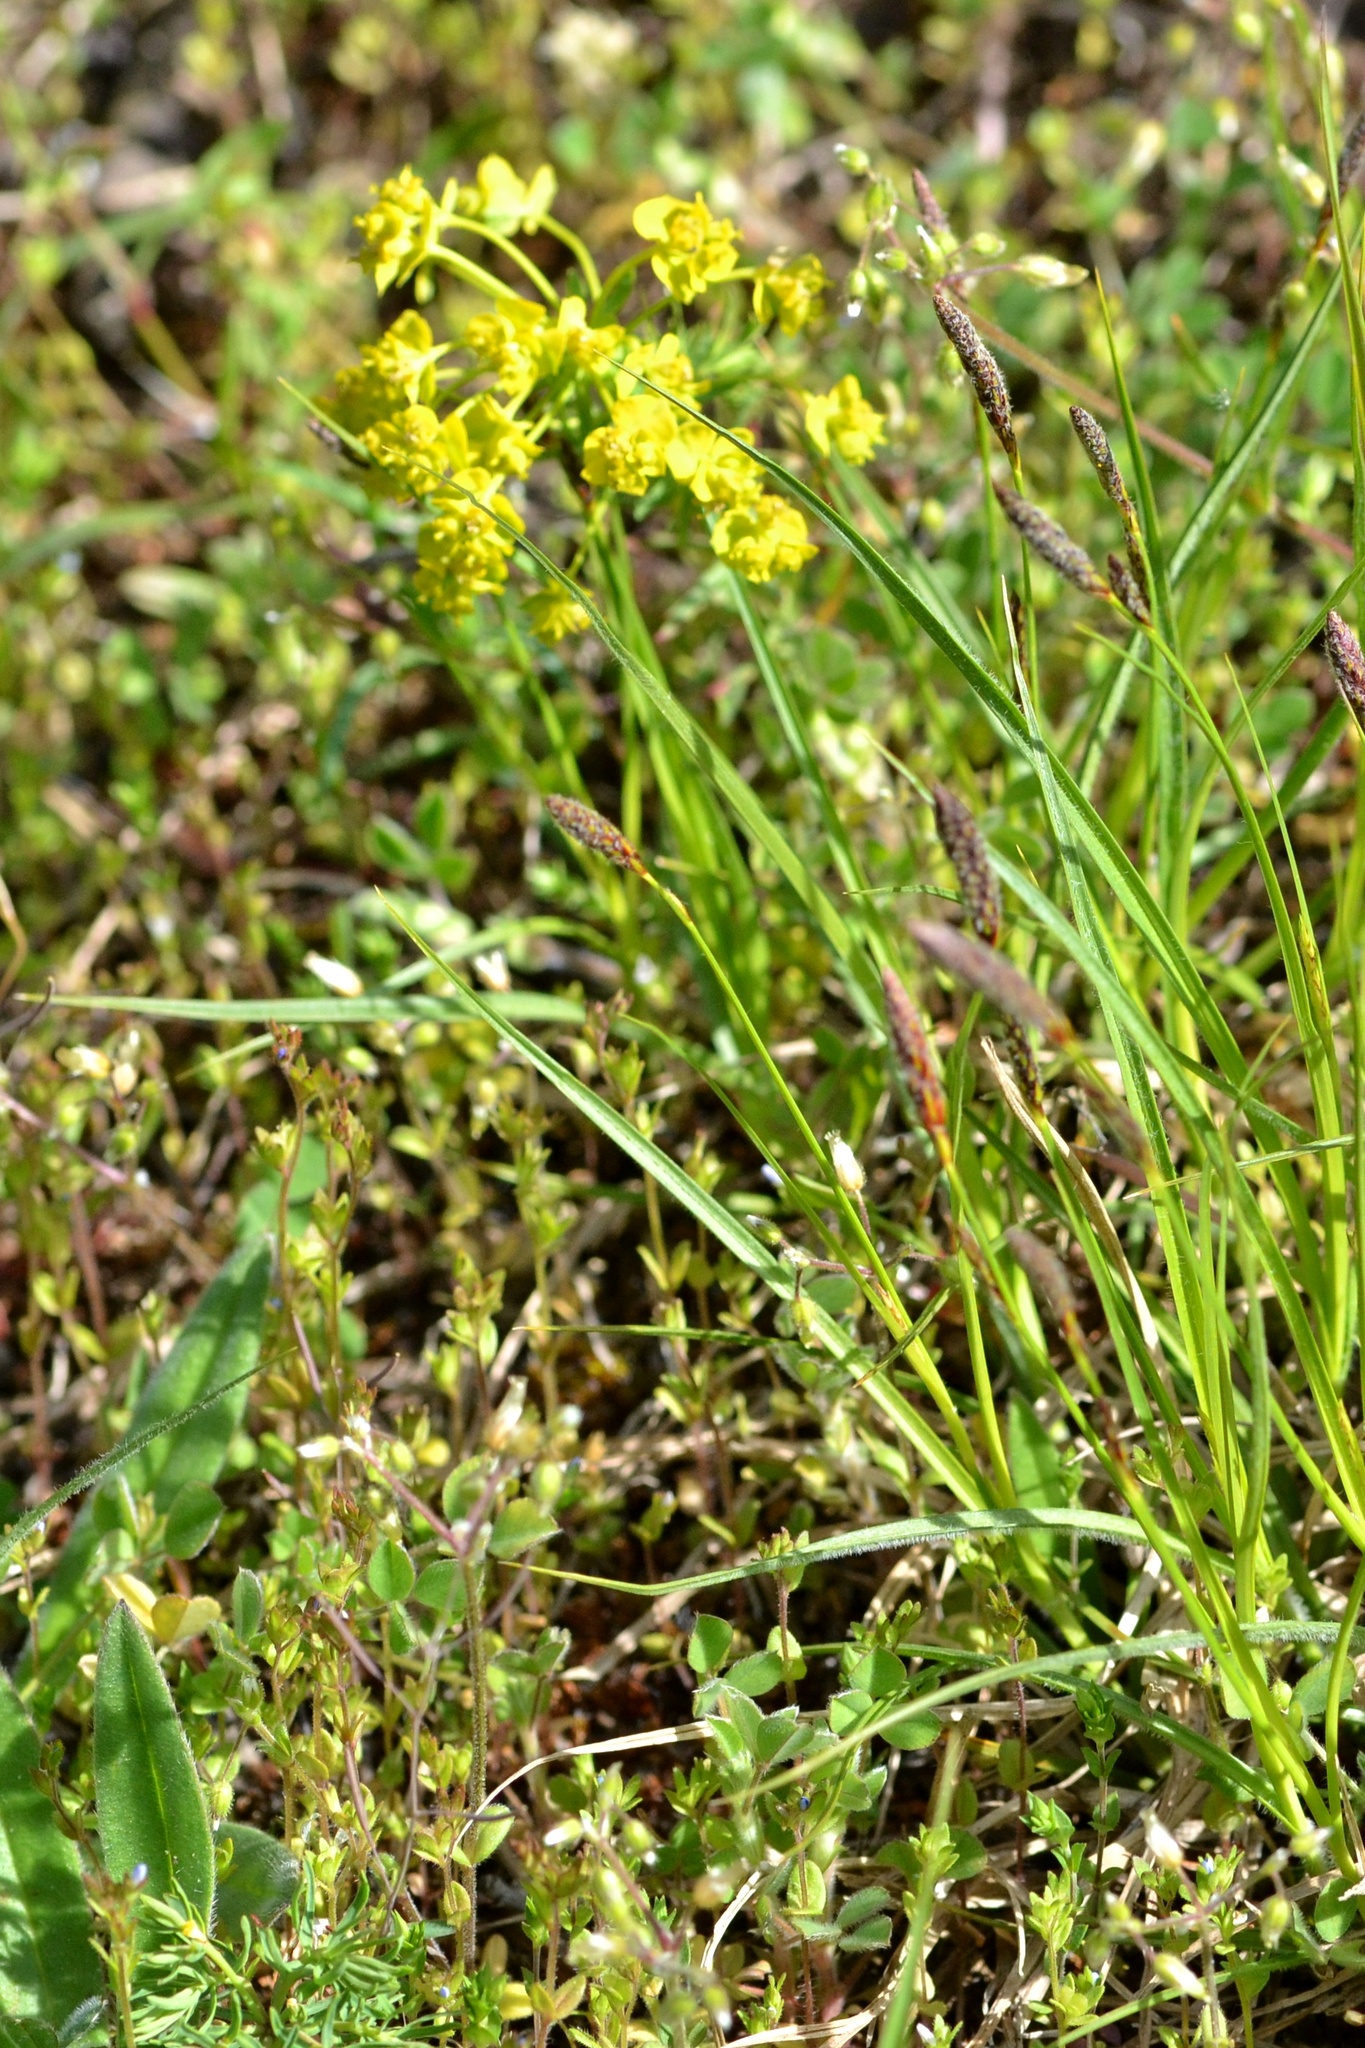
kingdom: Plantae
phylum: Tracheophyta
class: Magnoliopsida
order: Malpighiales
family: Euphorbiaceae
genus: Euphorbia
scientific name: Euphorbia cyparissias
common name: Cypress spurge
